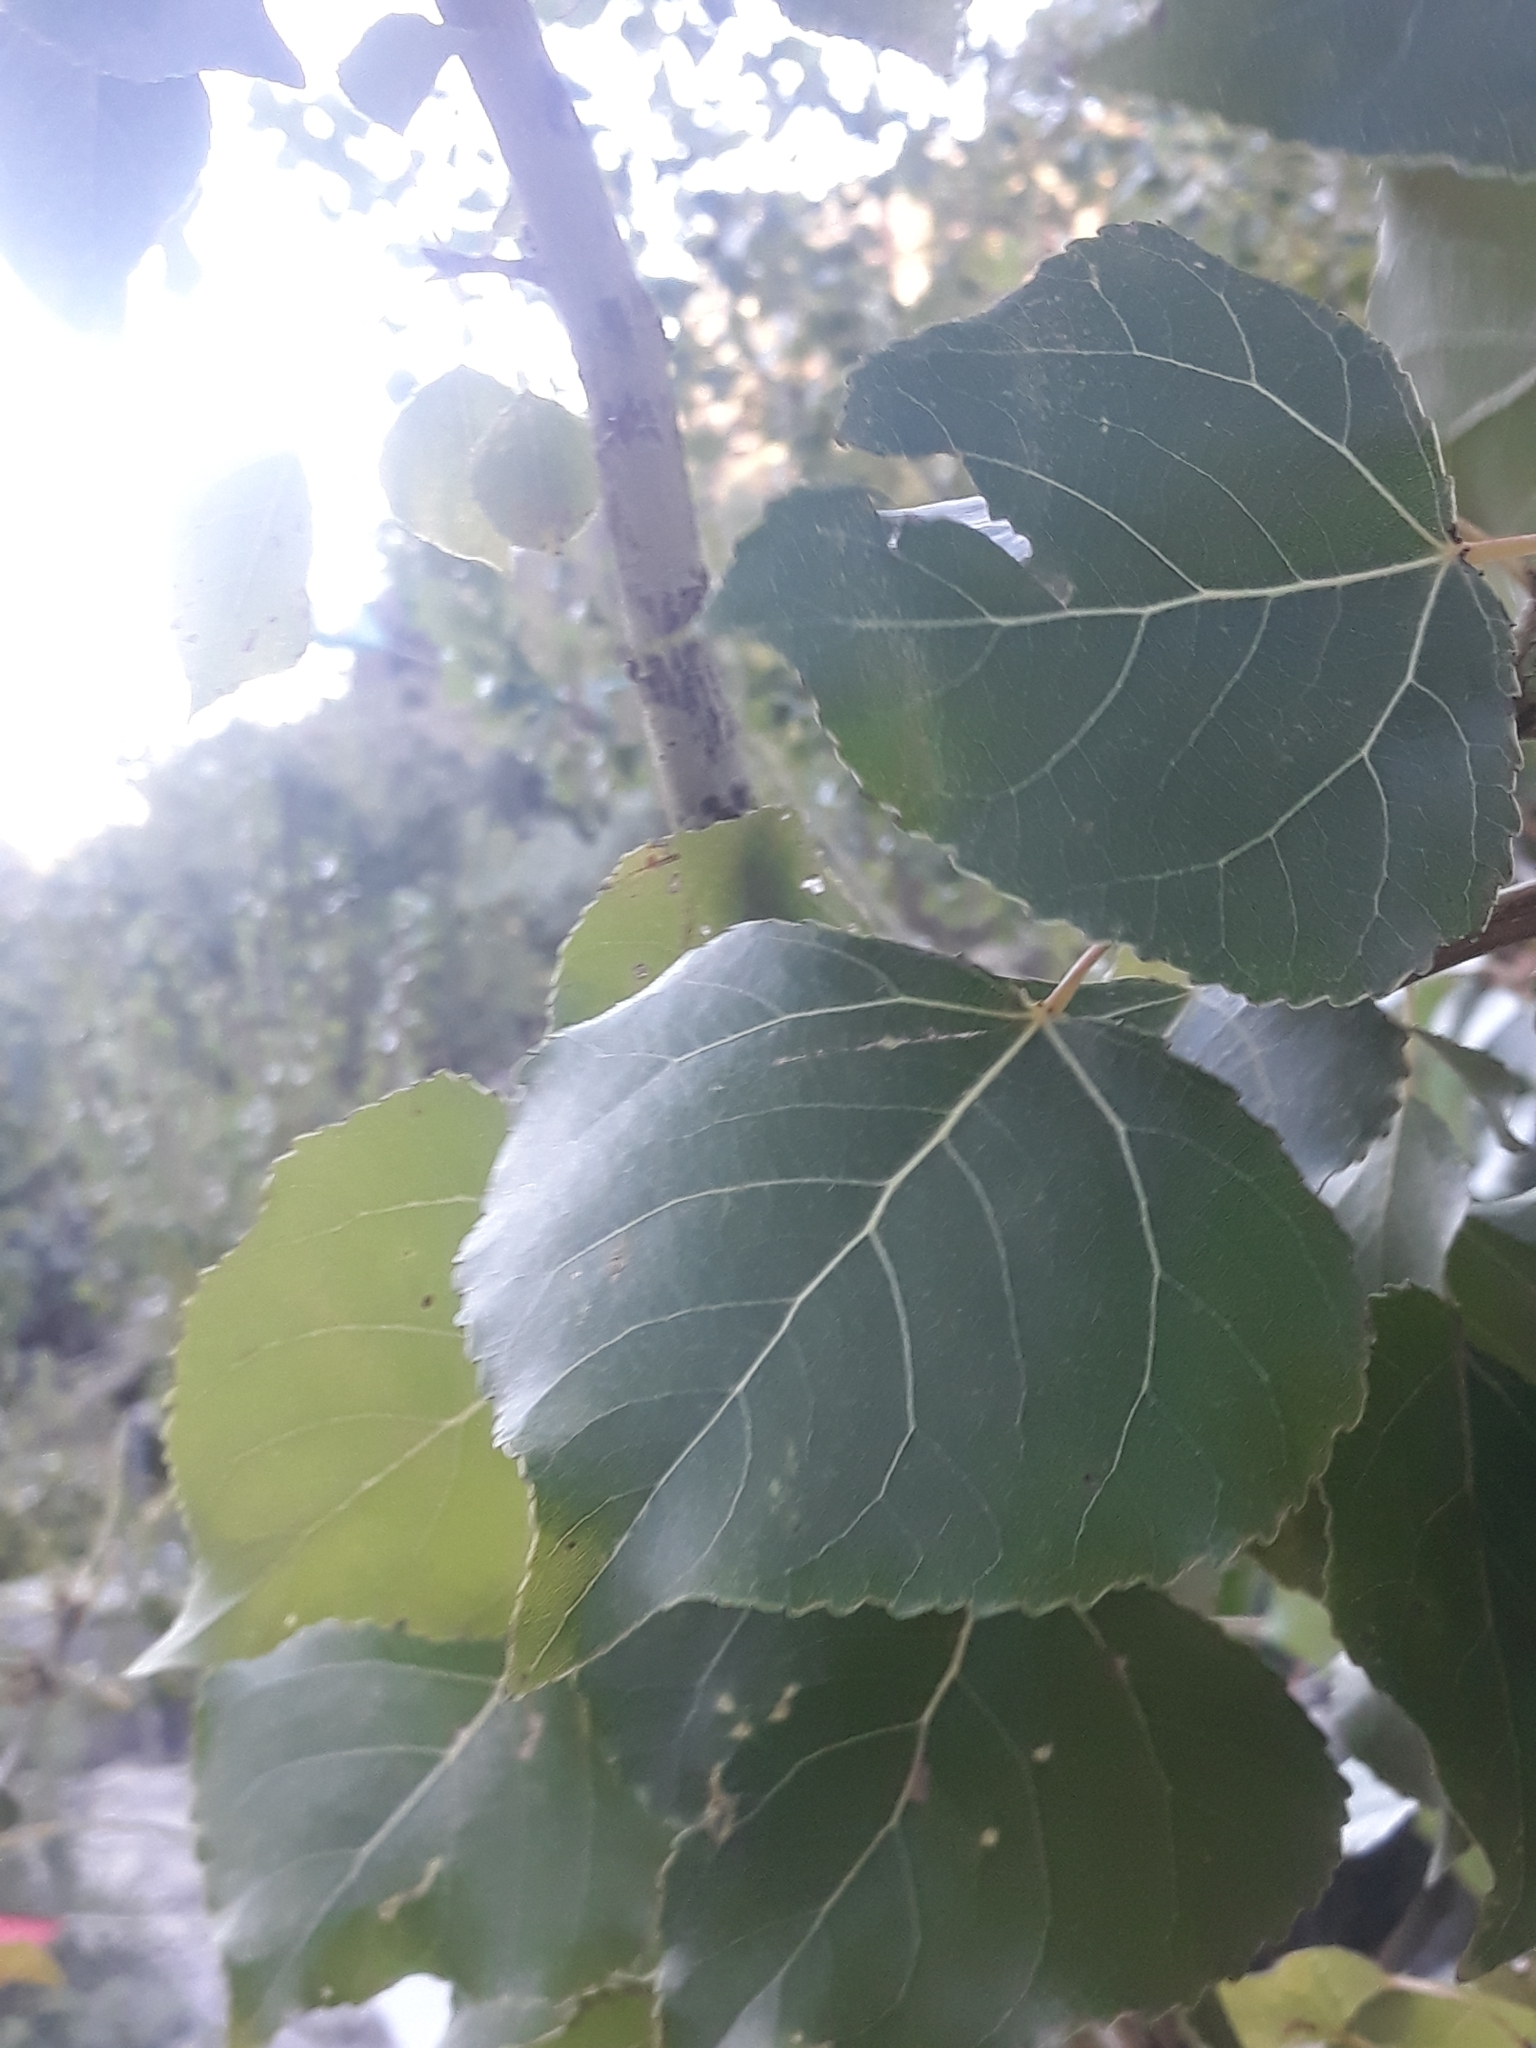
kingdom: Plantae
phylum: Tracheophyta
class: Magnoliopsida
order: Malpighiales
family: Salicaceae
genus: Populus
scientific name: Populus nigra
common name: Black poplar
